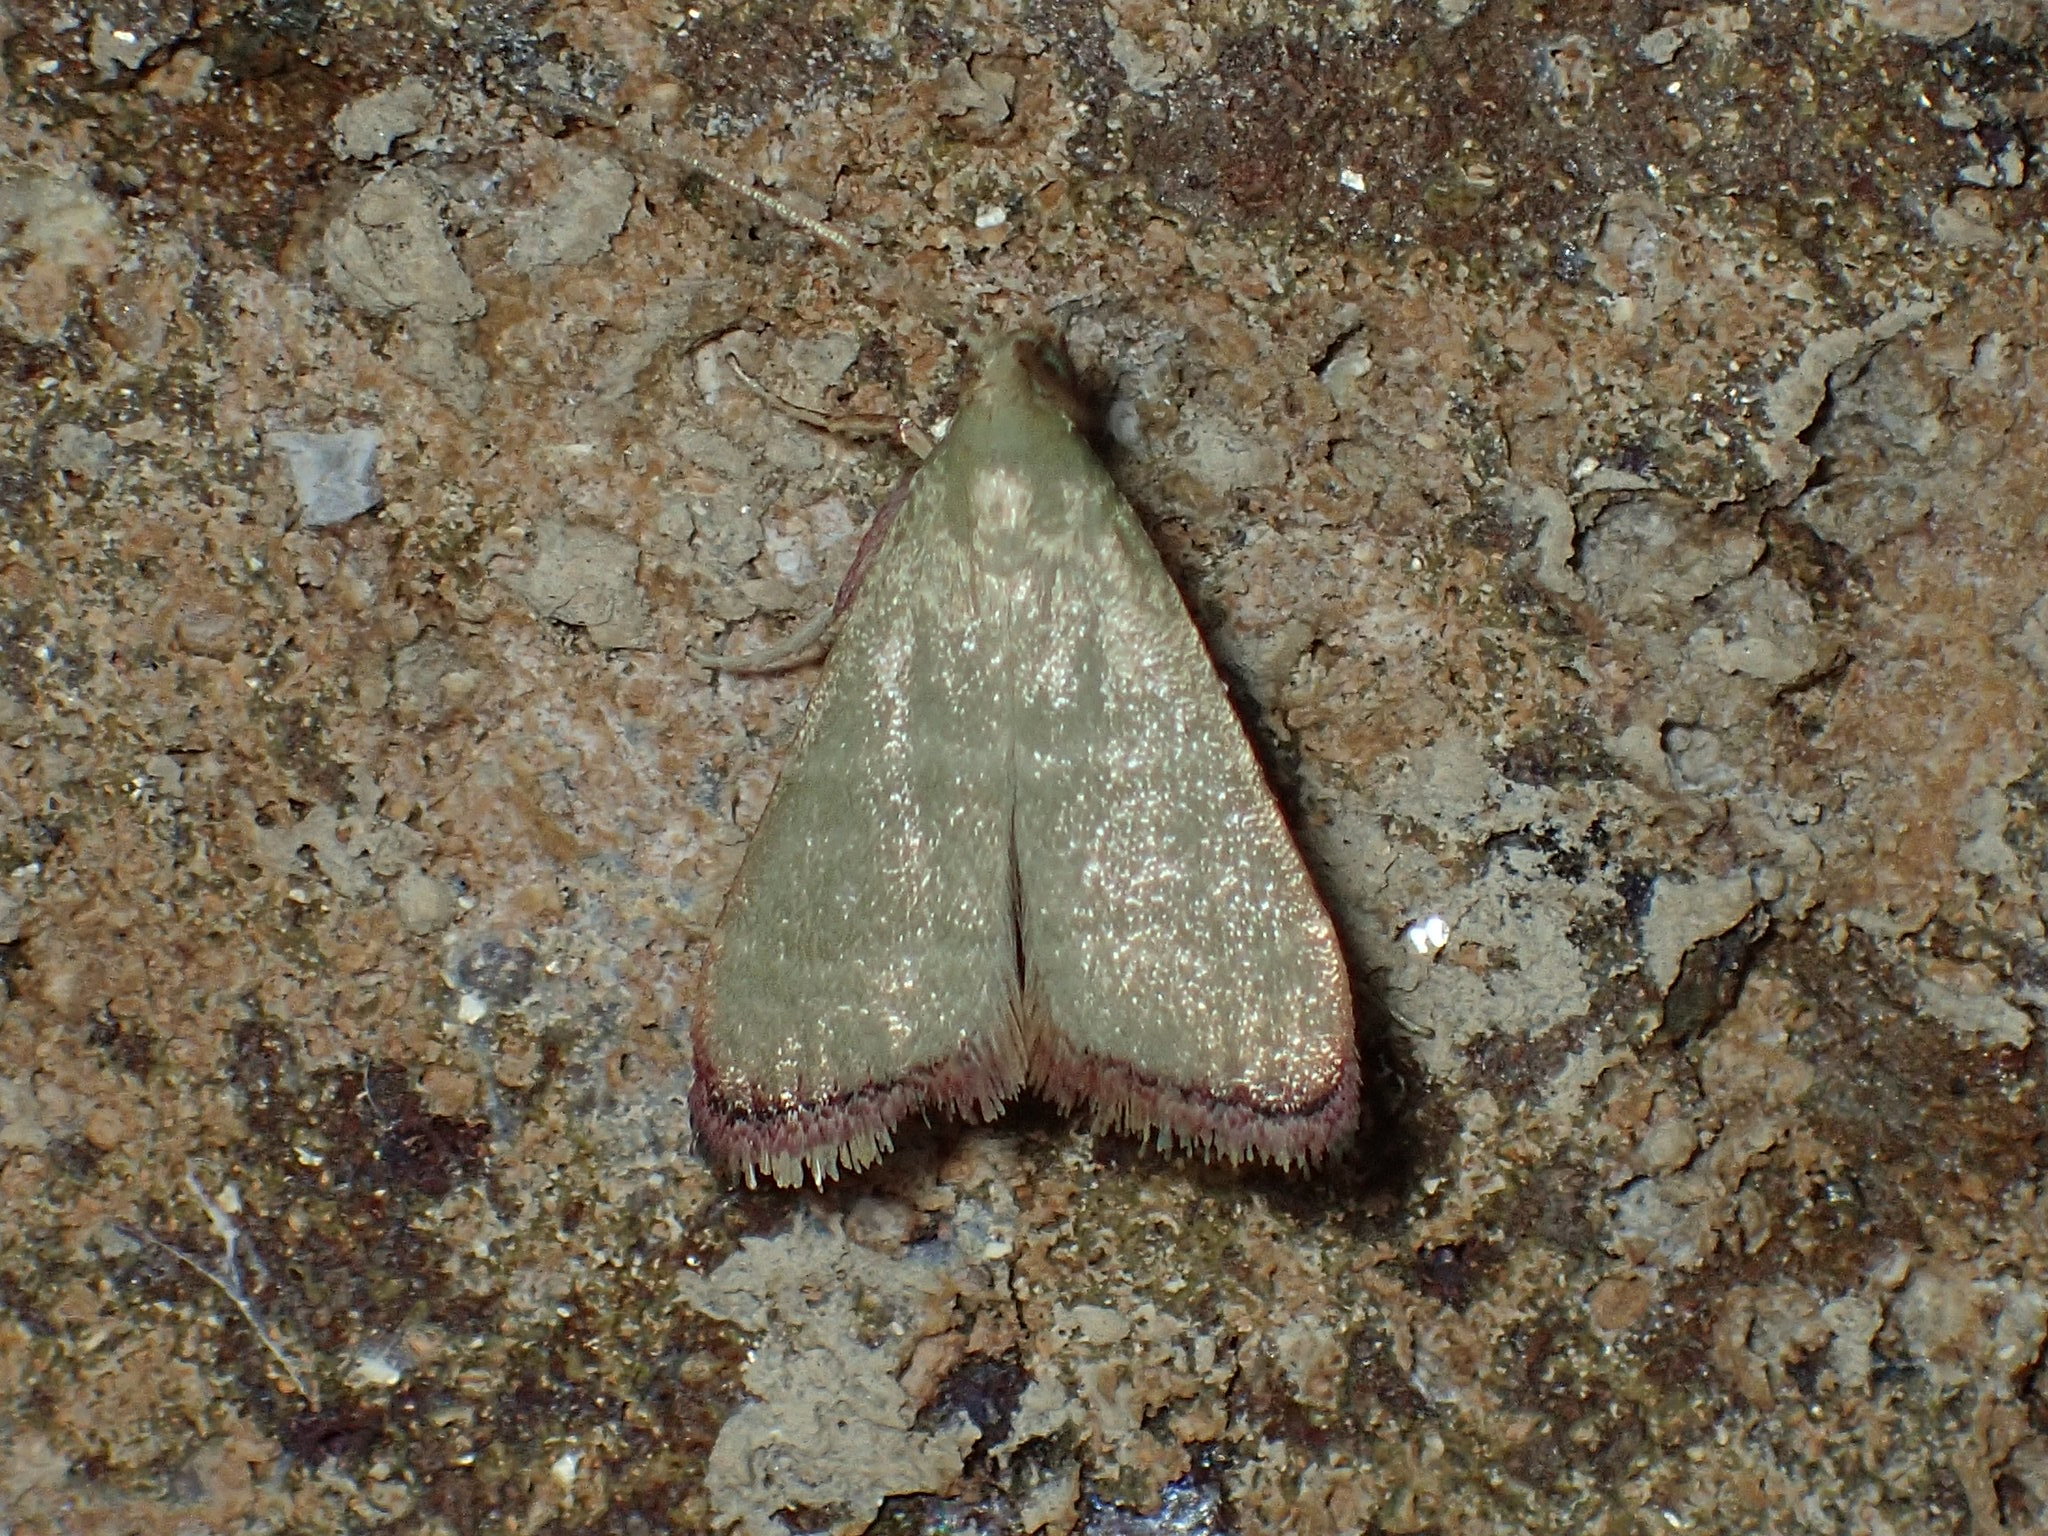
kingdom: Animalia
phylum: Arthropoda
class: Insecta
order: Lepidoptera
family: Pyralidae
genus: Arta
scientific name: Arta olivalis
